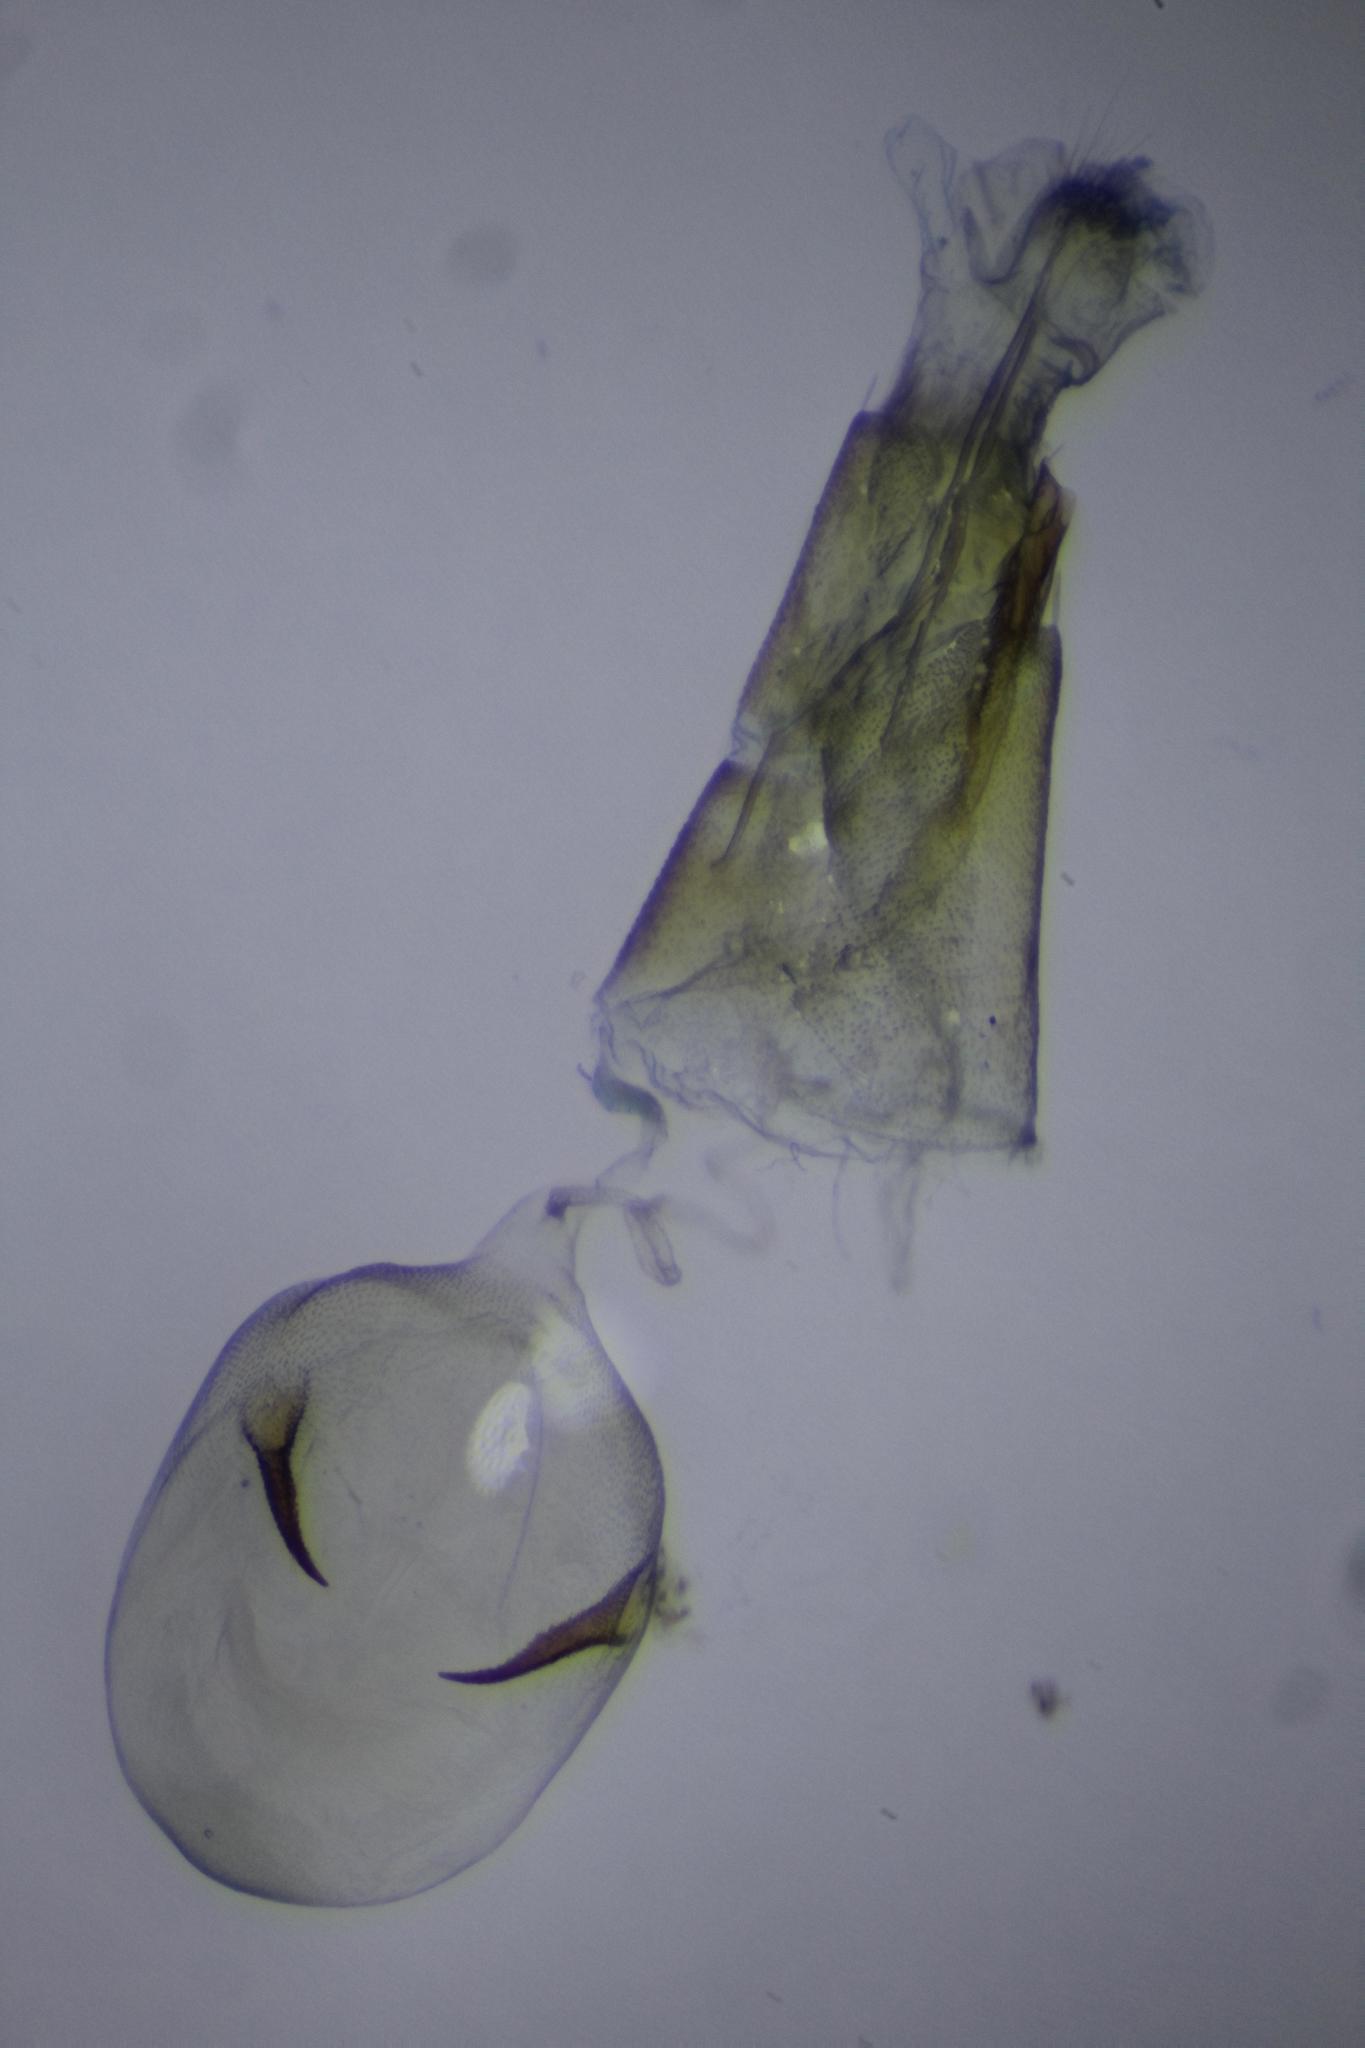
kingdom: Animalia
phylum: Arthropoda
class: Insecta
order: Lepidoptera
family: Pterophoridae
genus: Sinpunctiptilia
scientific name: Sinpunctiptilia emissalis
